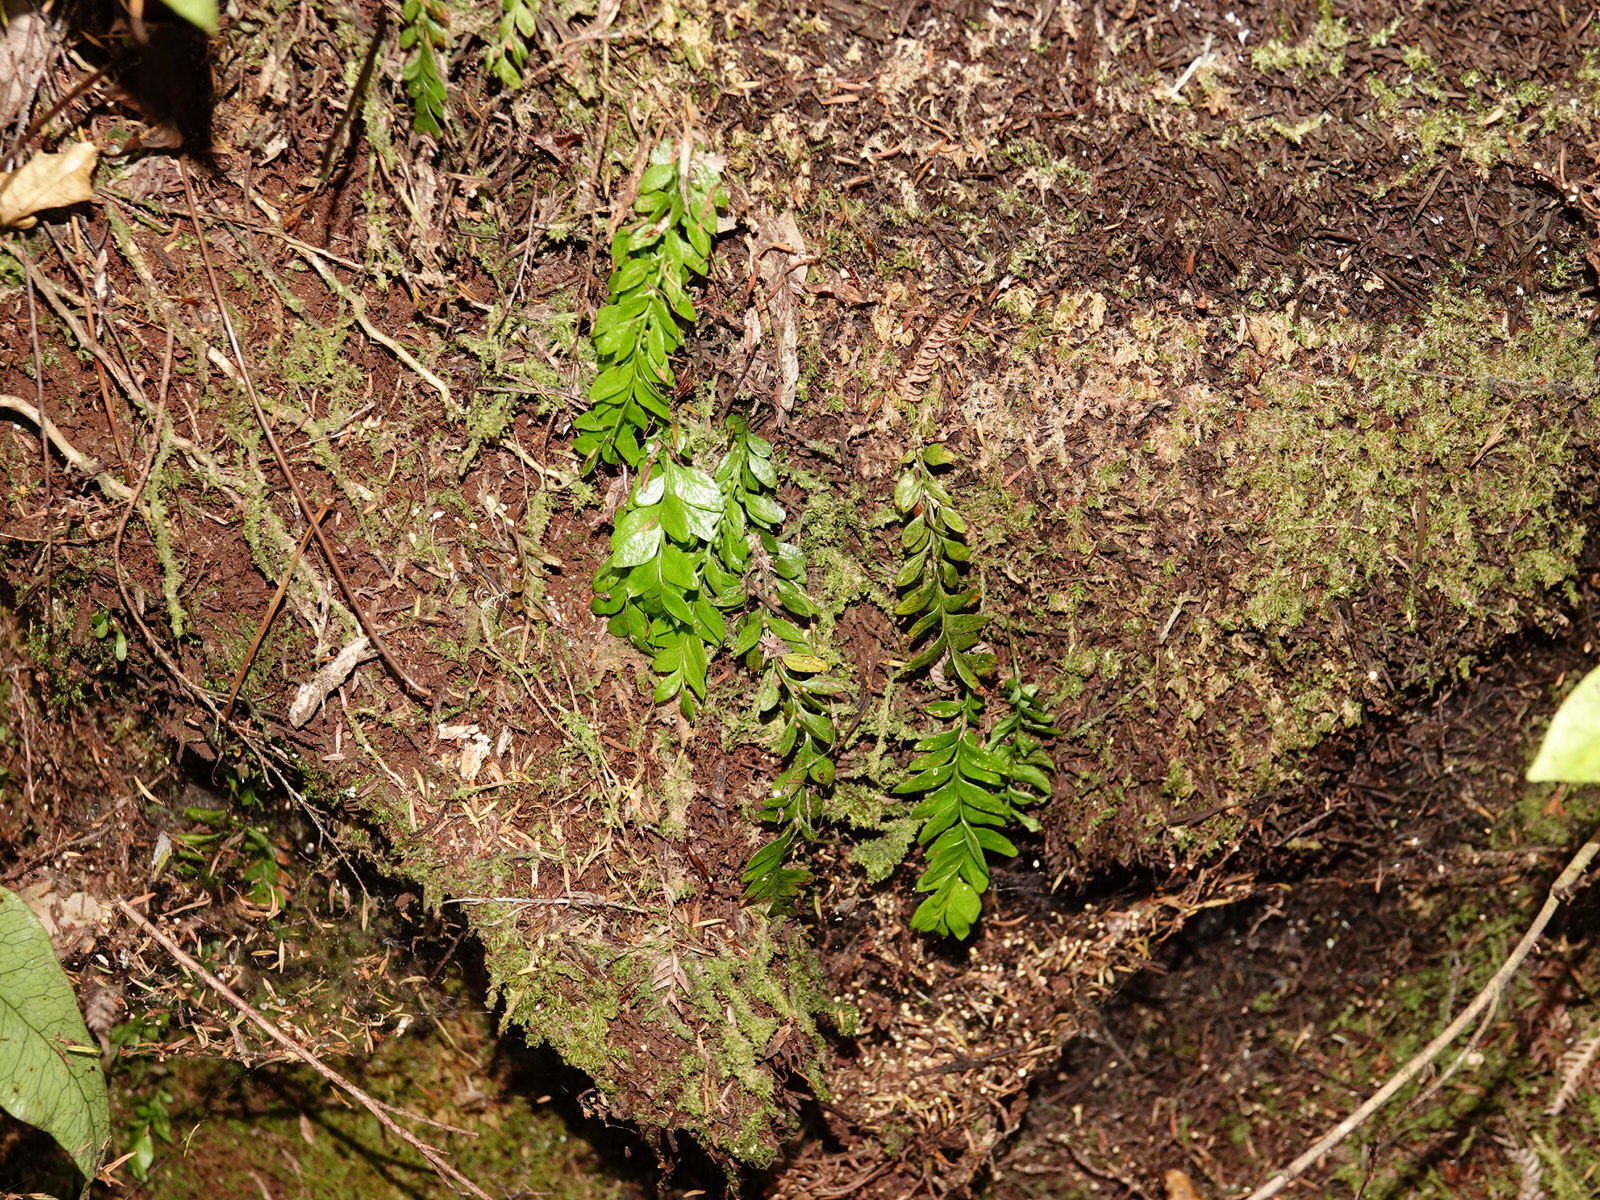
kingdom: Plantae
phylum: Tracheophyta
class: Polypodiopsida
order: Psilotales
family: Psilotaceae
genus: Tmesipteris
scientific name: Tmesipteris lanceolata
